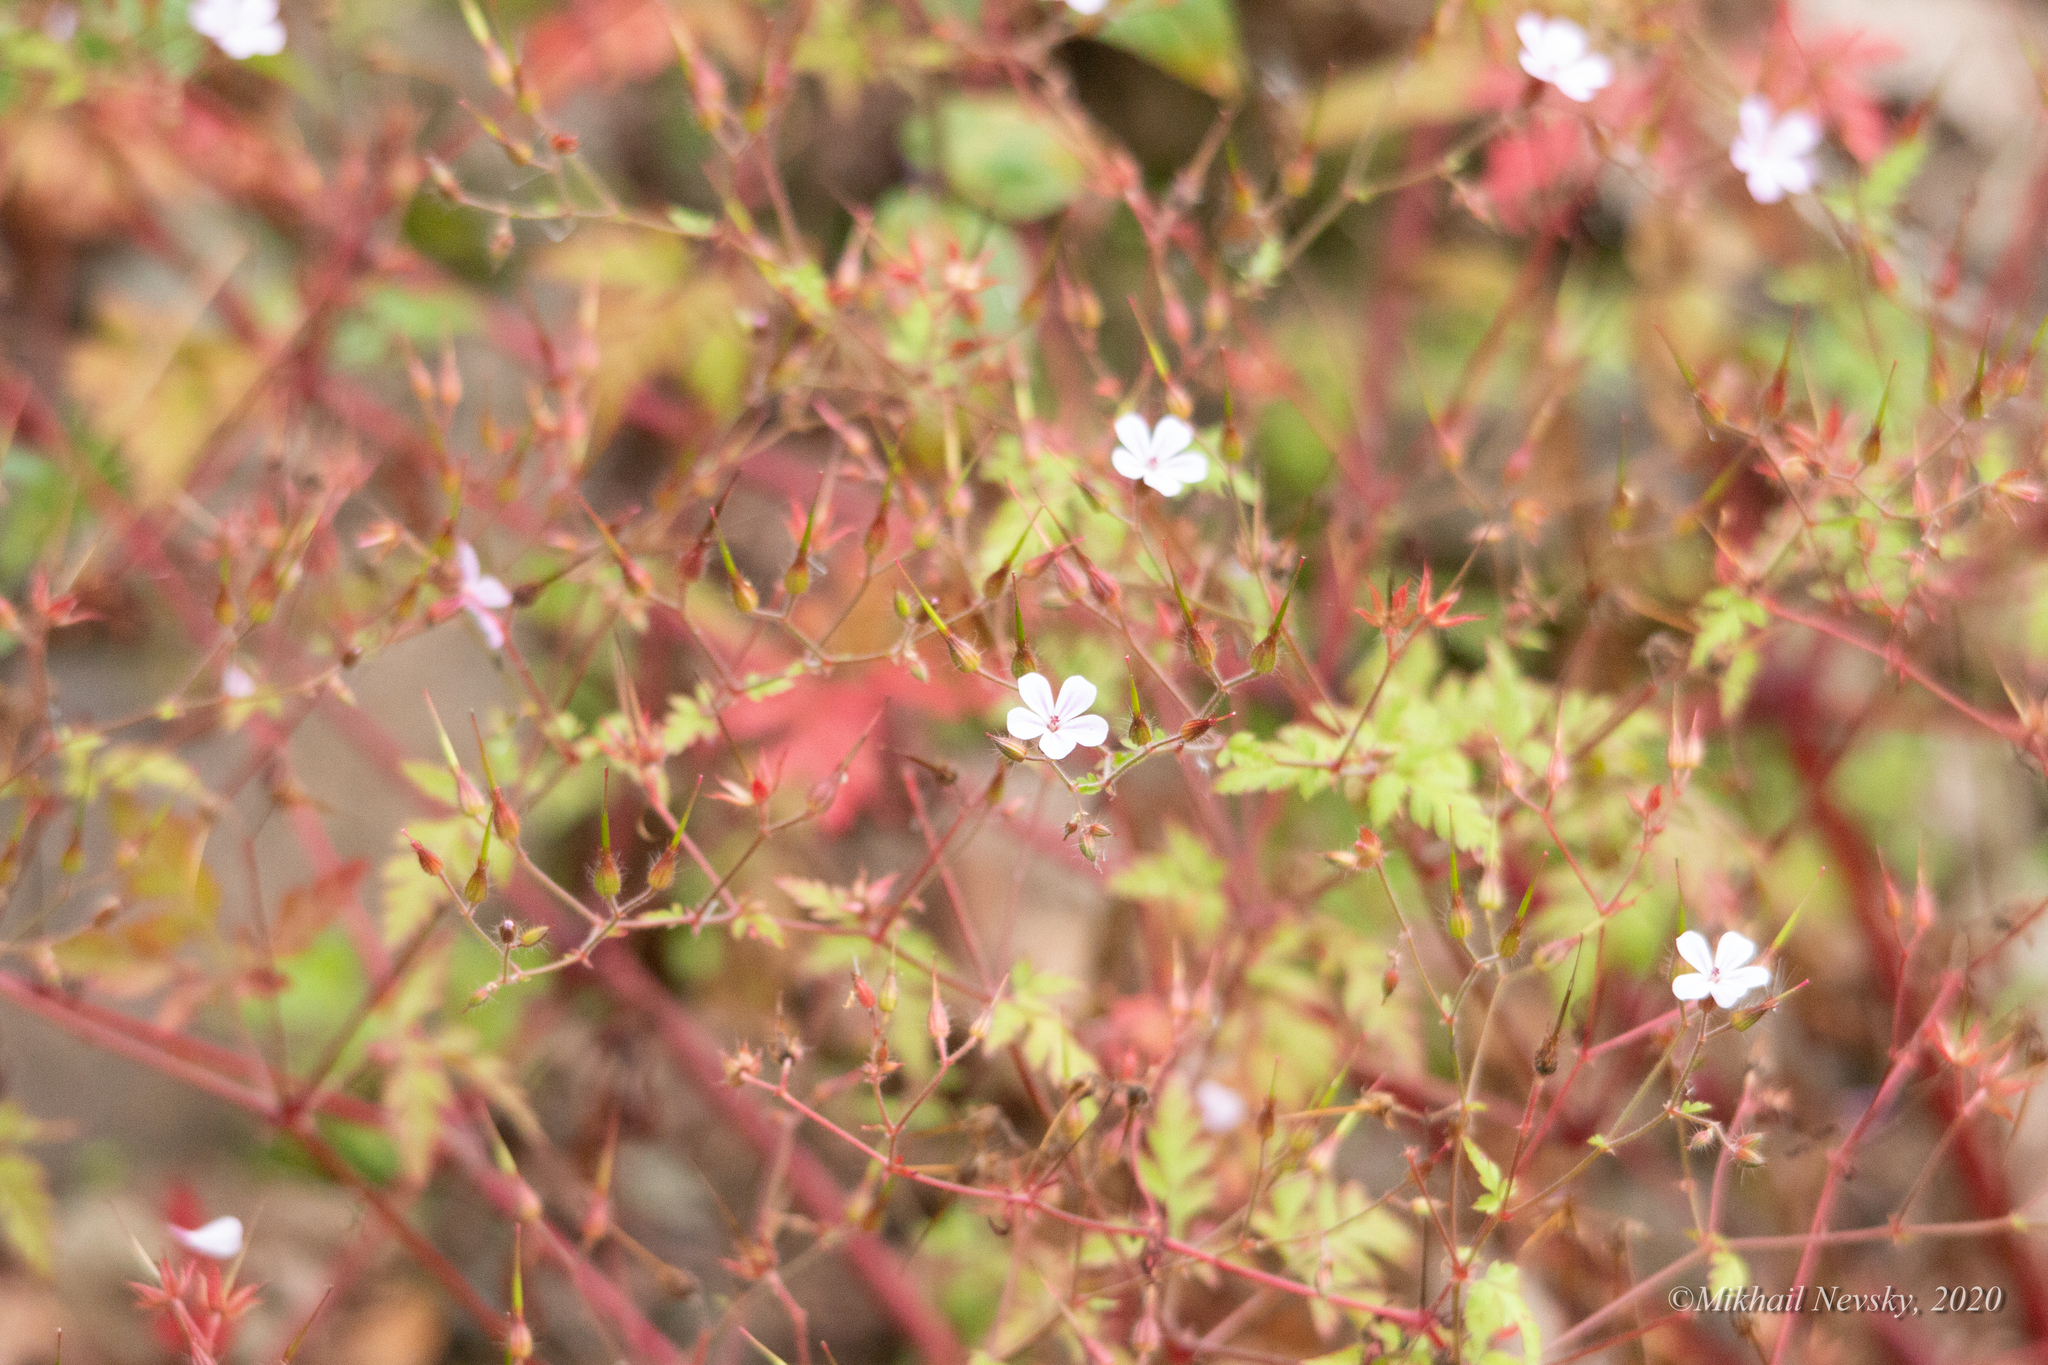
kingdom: Plantae
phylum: Tracheophyta
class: Magnoliopsida
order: Geraniales
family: Geraniaceae
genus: Geranium
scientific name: Geranium robertianum
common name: Herb-robert
